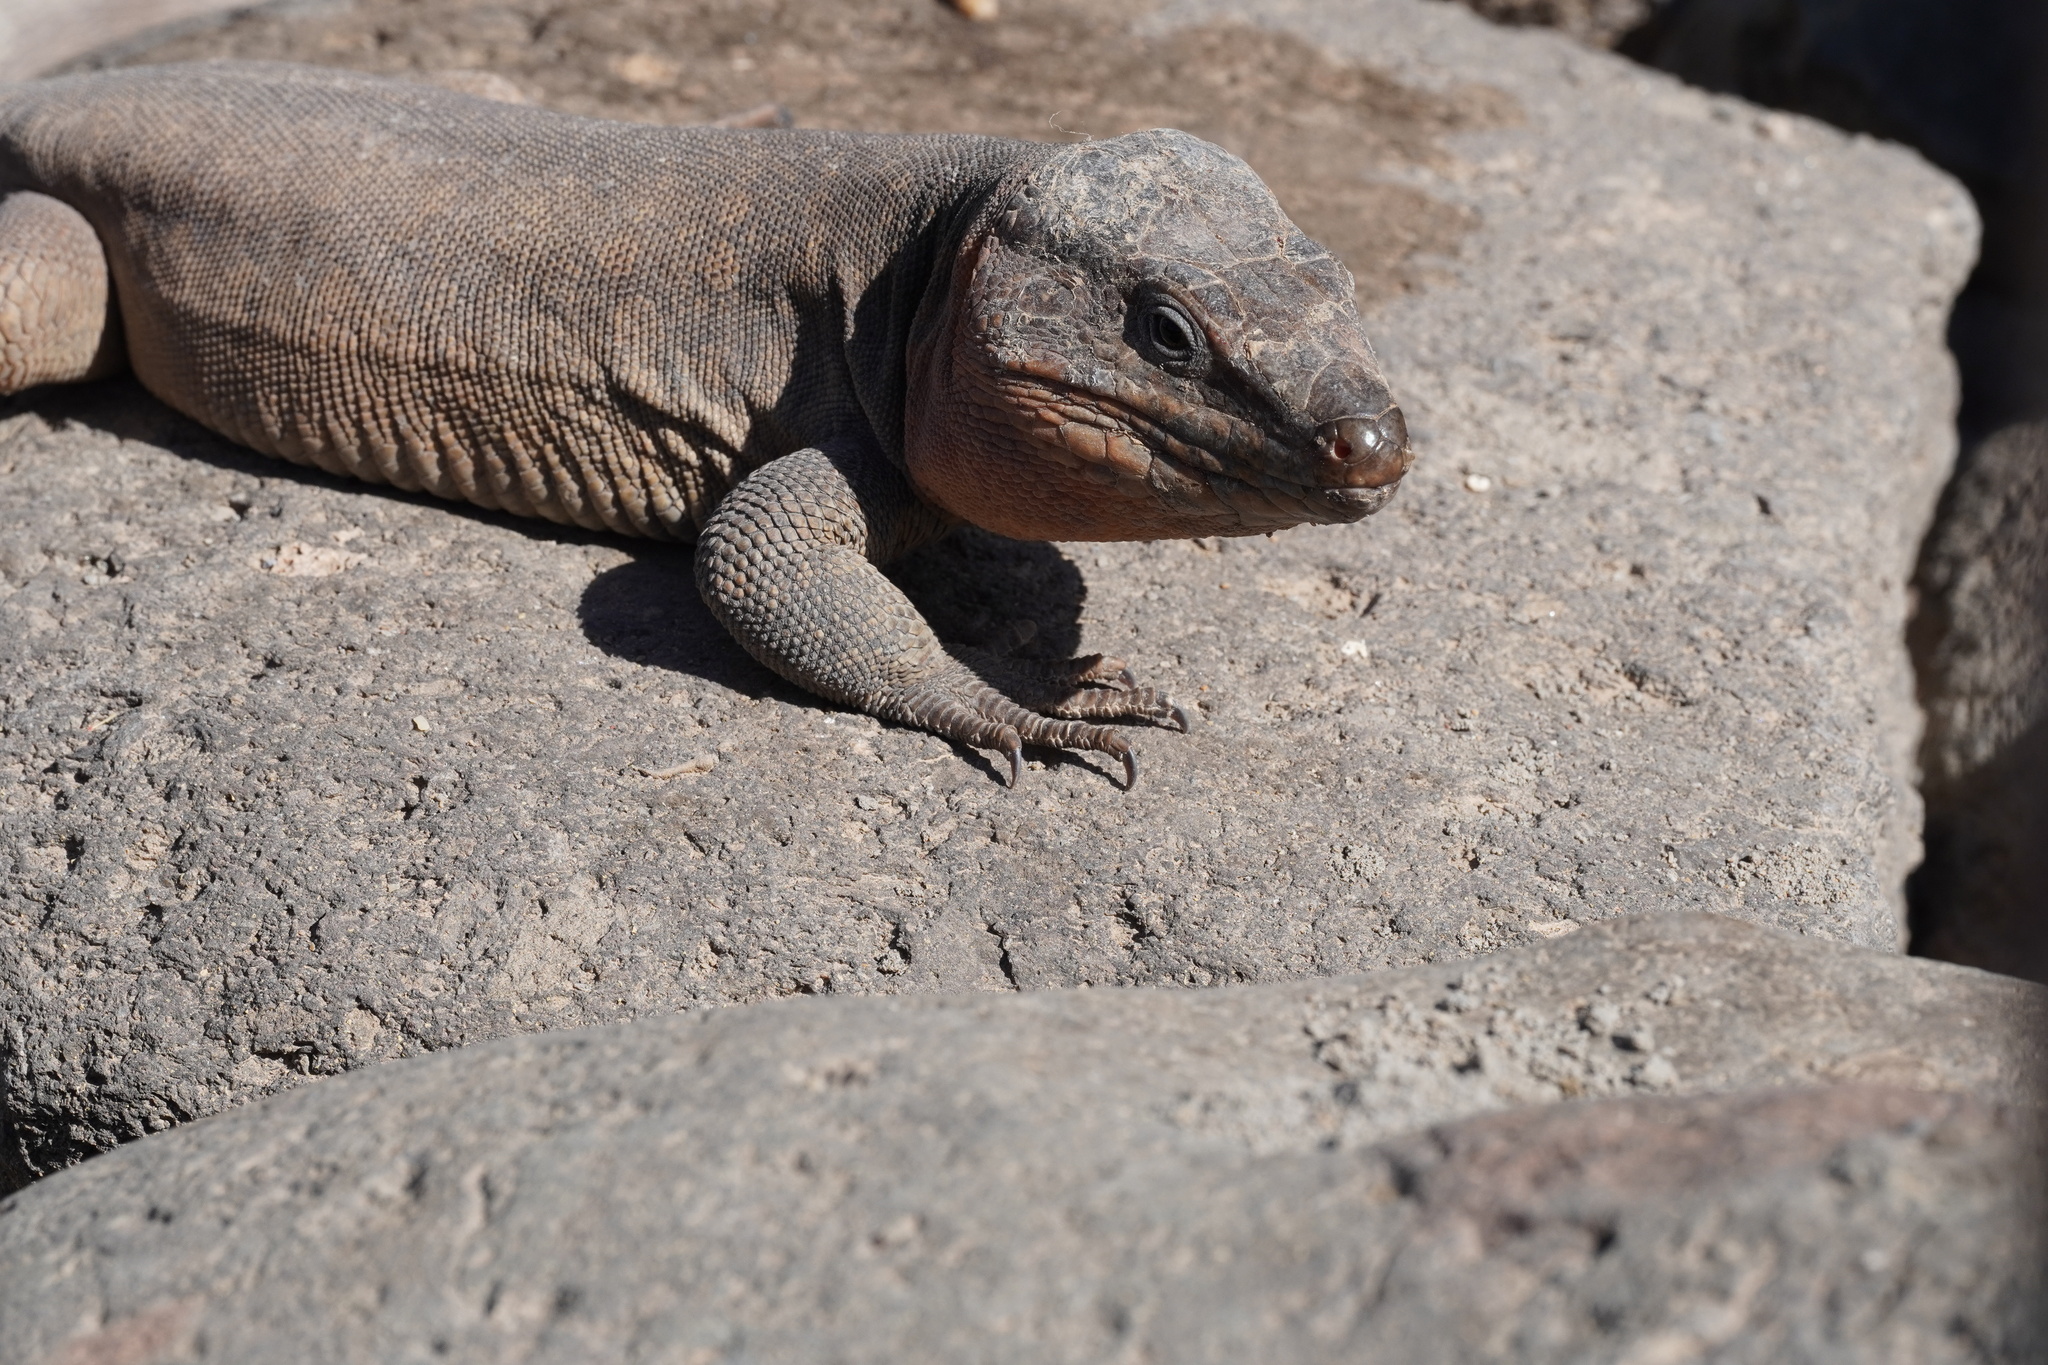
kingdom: Animalia
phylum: Chordata
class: Squamata
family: Lacertidae
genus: Gallotia
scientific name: Gallotia stehlini
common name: Gran canaria giant lizard
